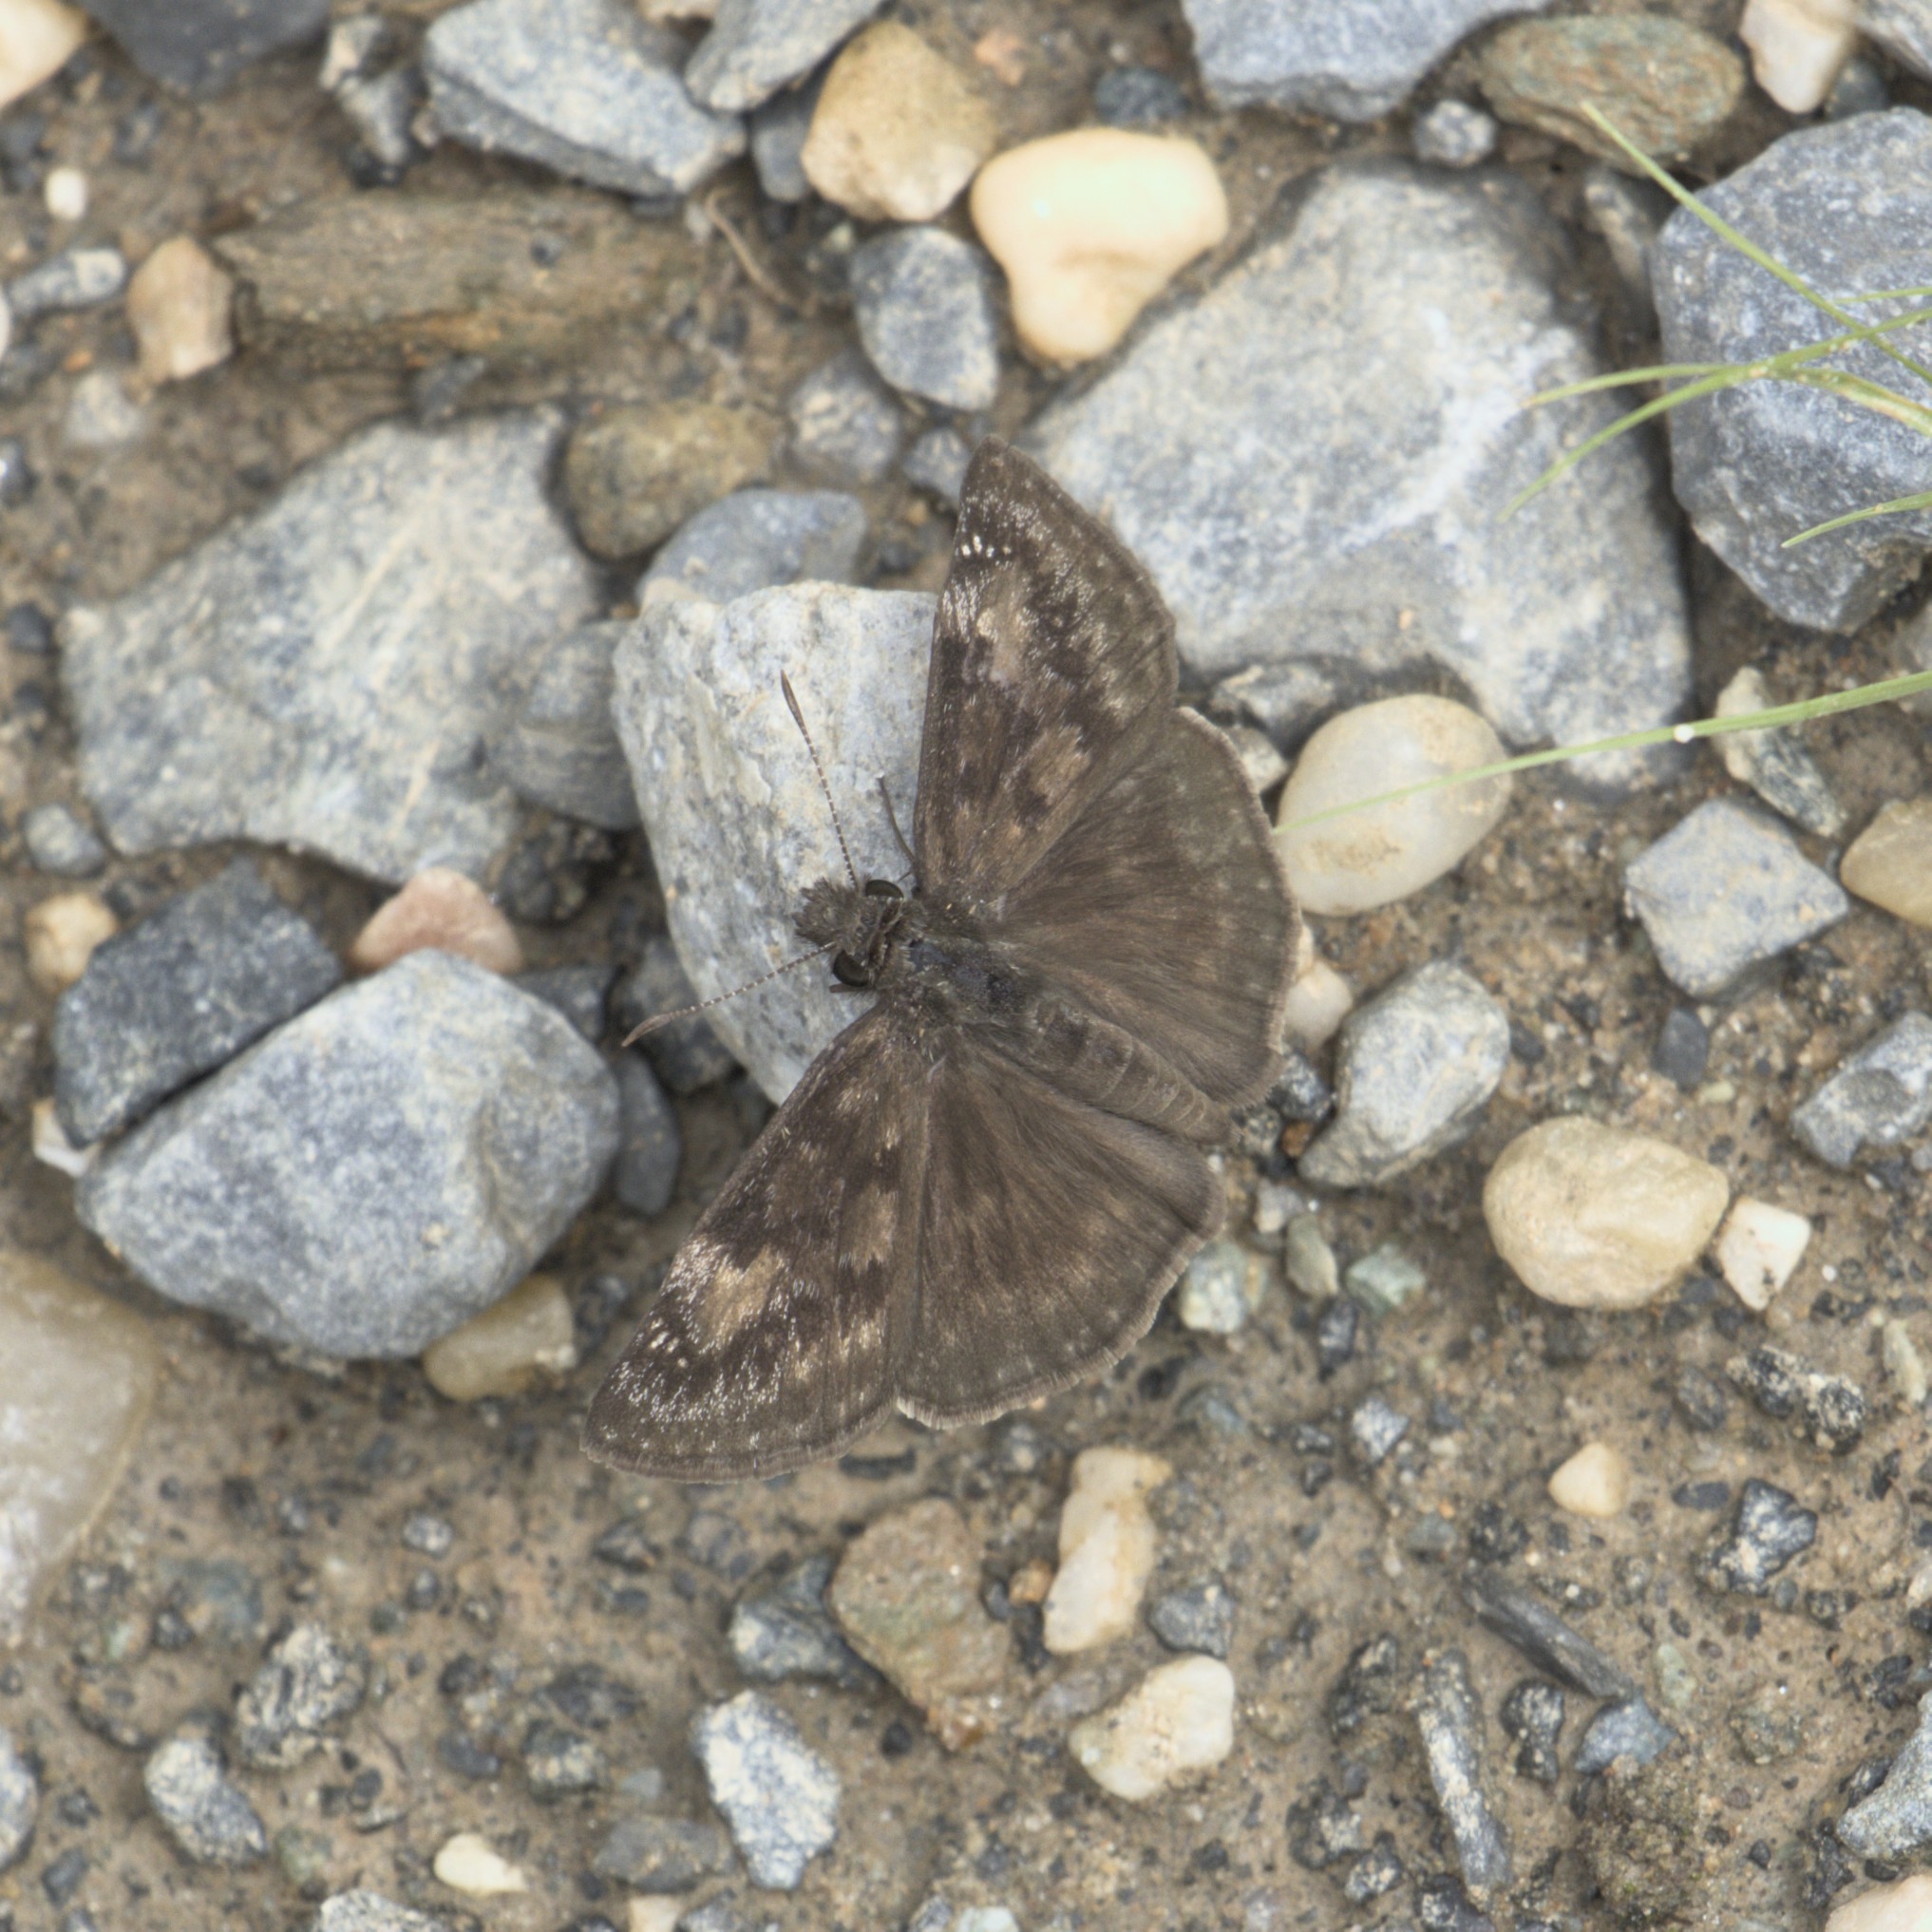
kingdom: Animalia
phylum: Arthropoda
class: Insecta
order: Lepidoptera
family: Hesperiidae
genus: Erynnis
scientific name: Erynnis baptisiae
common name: Wild indigo duskywing
